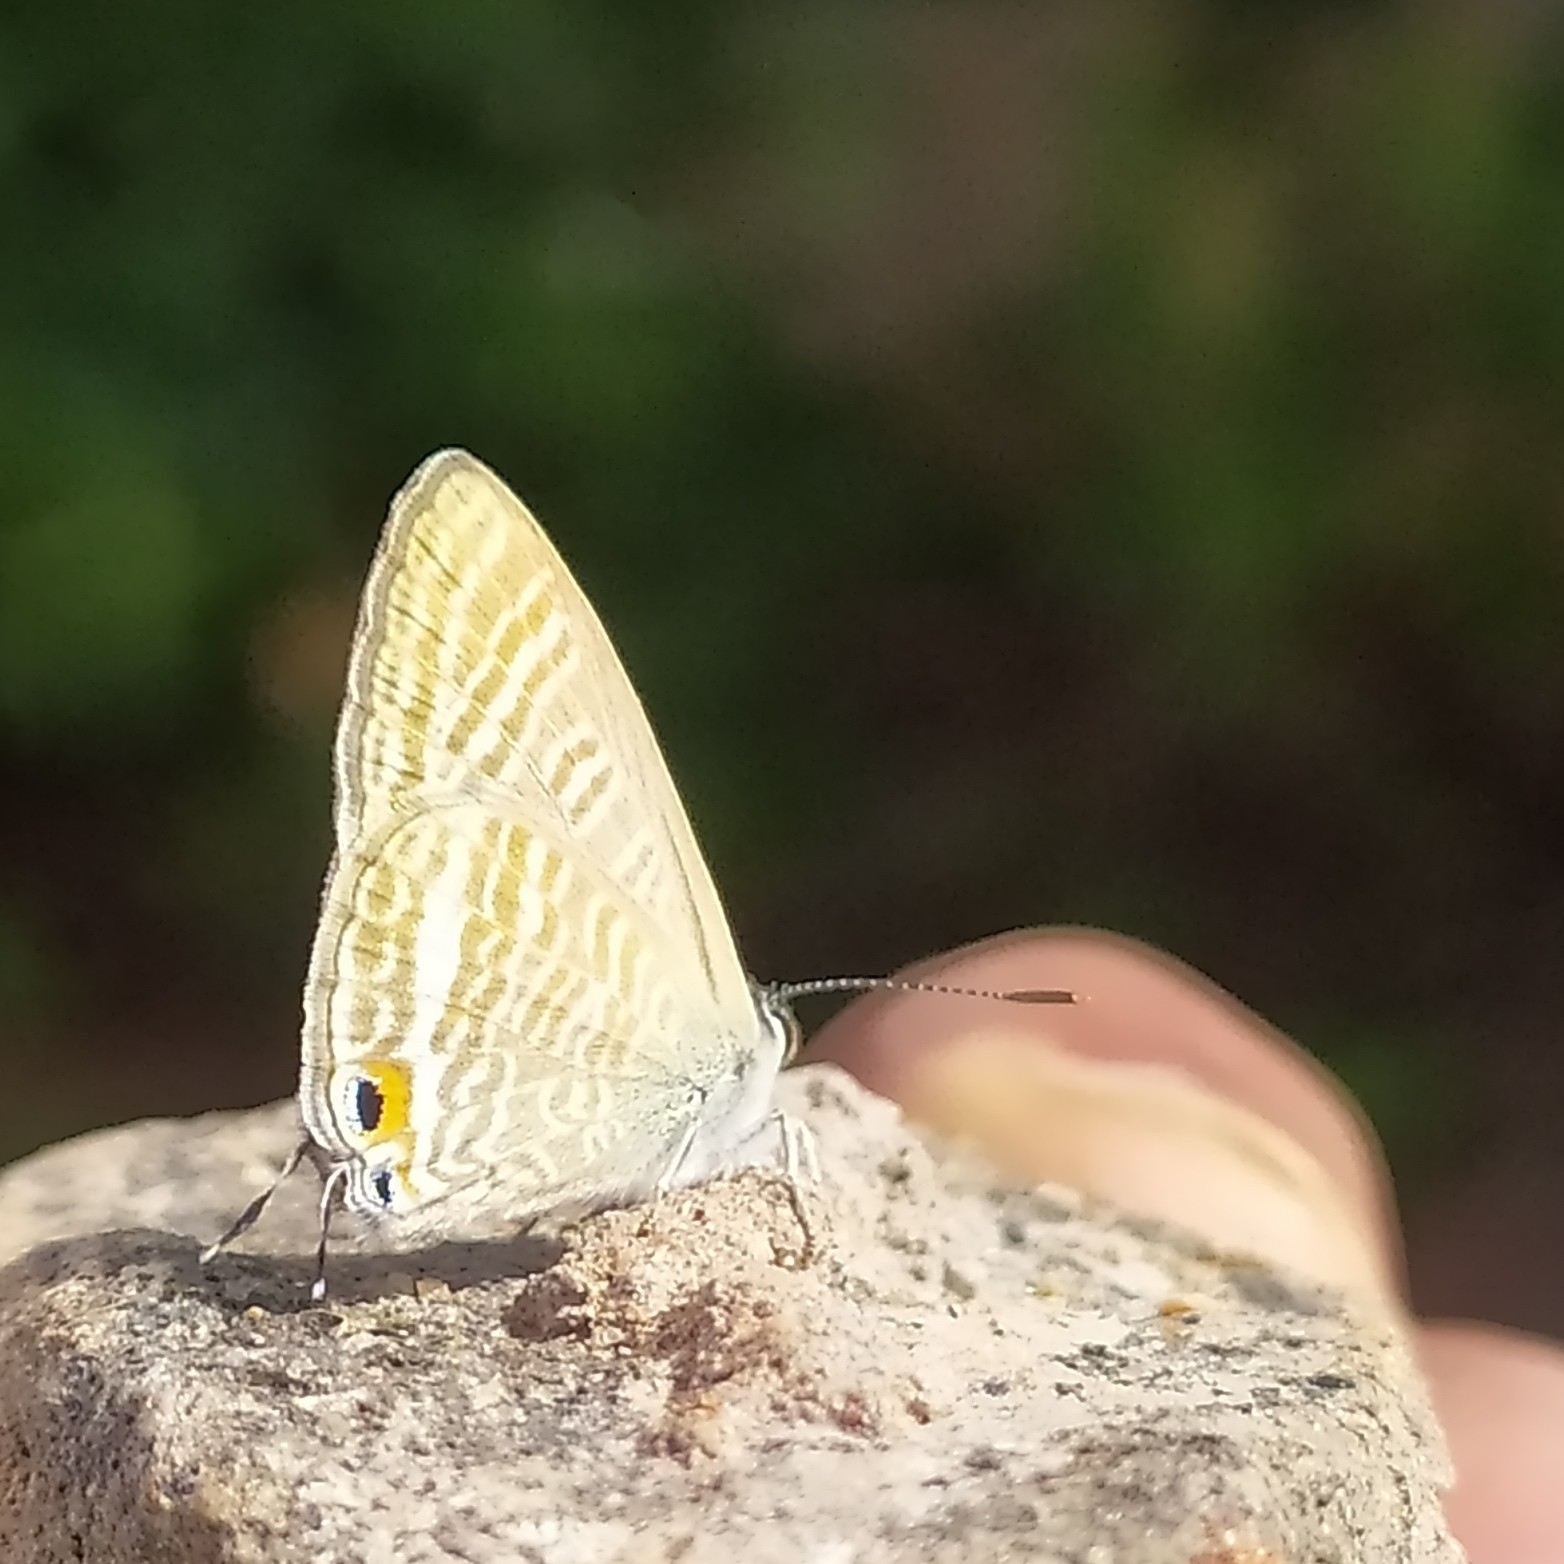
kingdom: Animalia
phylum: Arthropoda
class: Insecta
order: Lepidoptera
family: Lycaenidae
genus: Lampides
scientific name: Lampides boeticus
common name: Long-tailed blue
